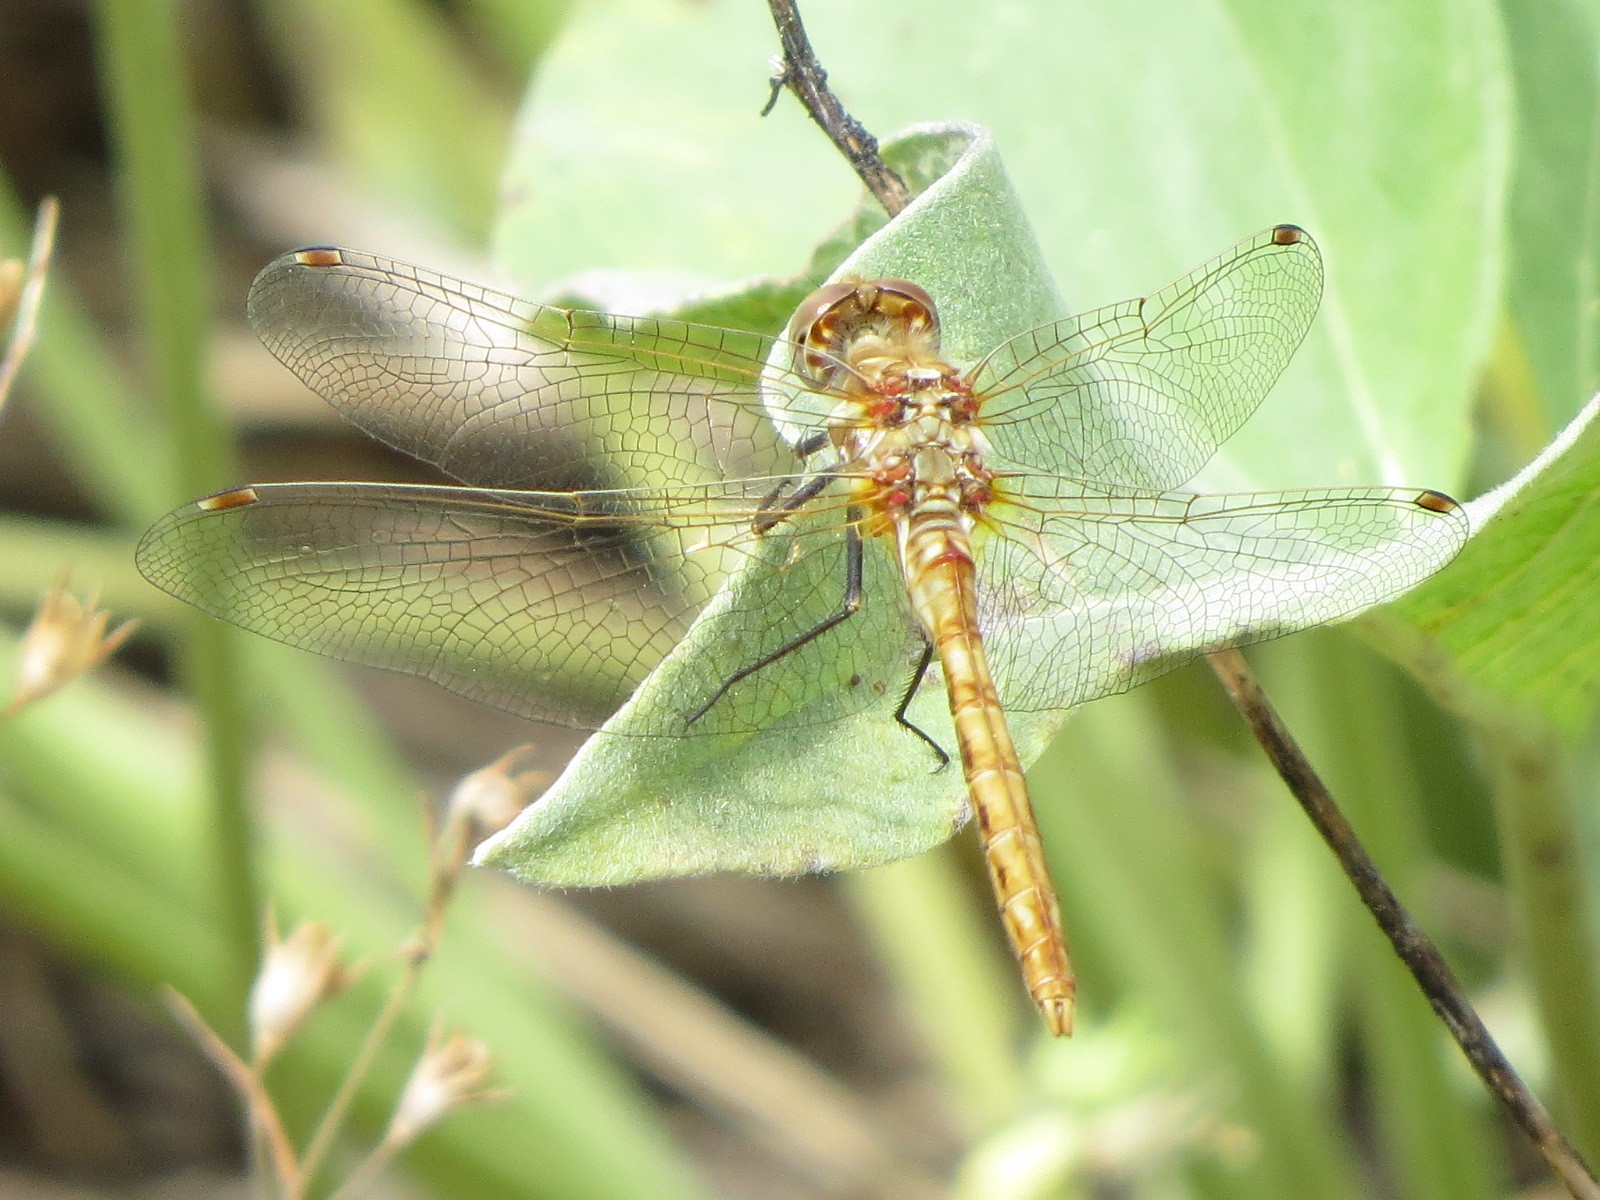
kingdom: Animalia
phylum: Arthropoda
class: Insecta
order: Odonata
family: Libellulidae
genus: Sympetrum
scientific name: Sympetrum corruptum
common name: Variegated meadowhawk
